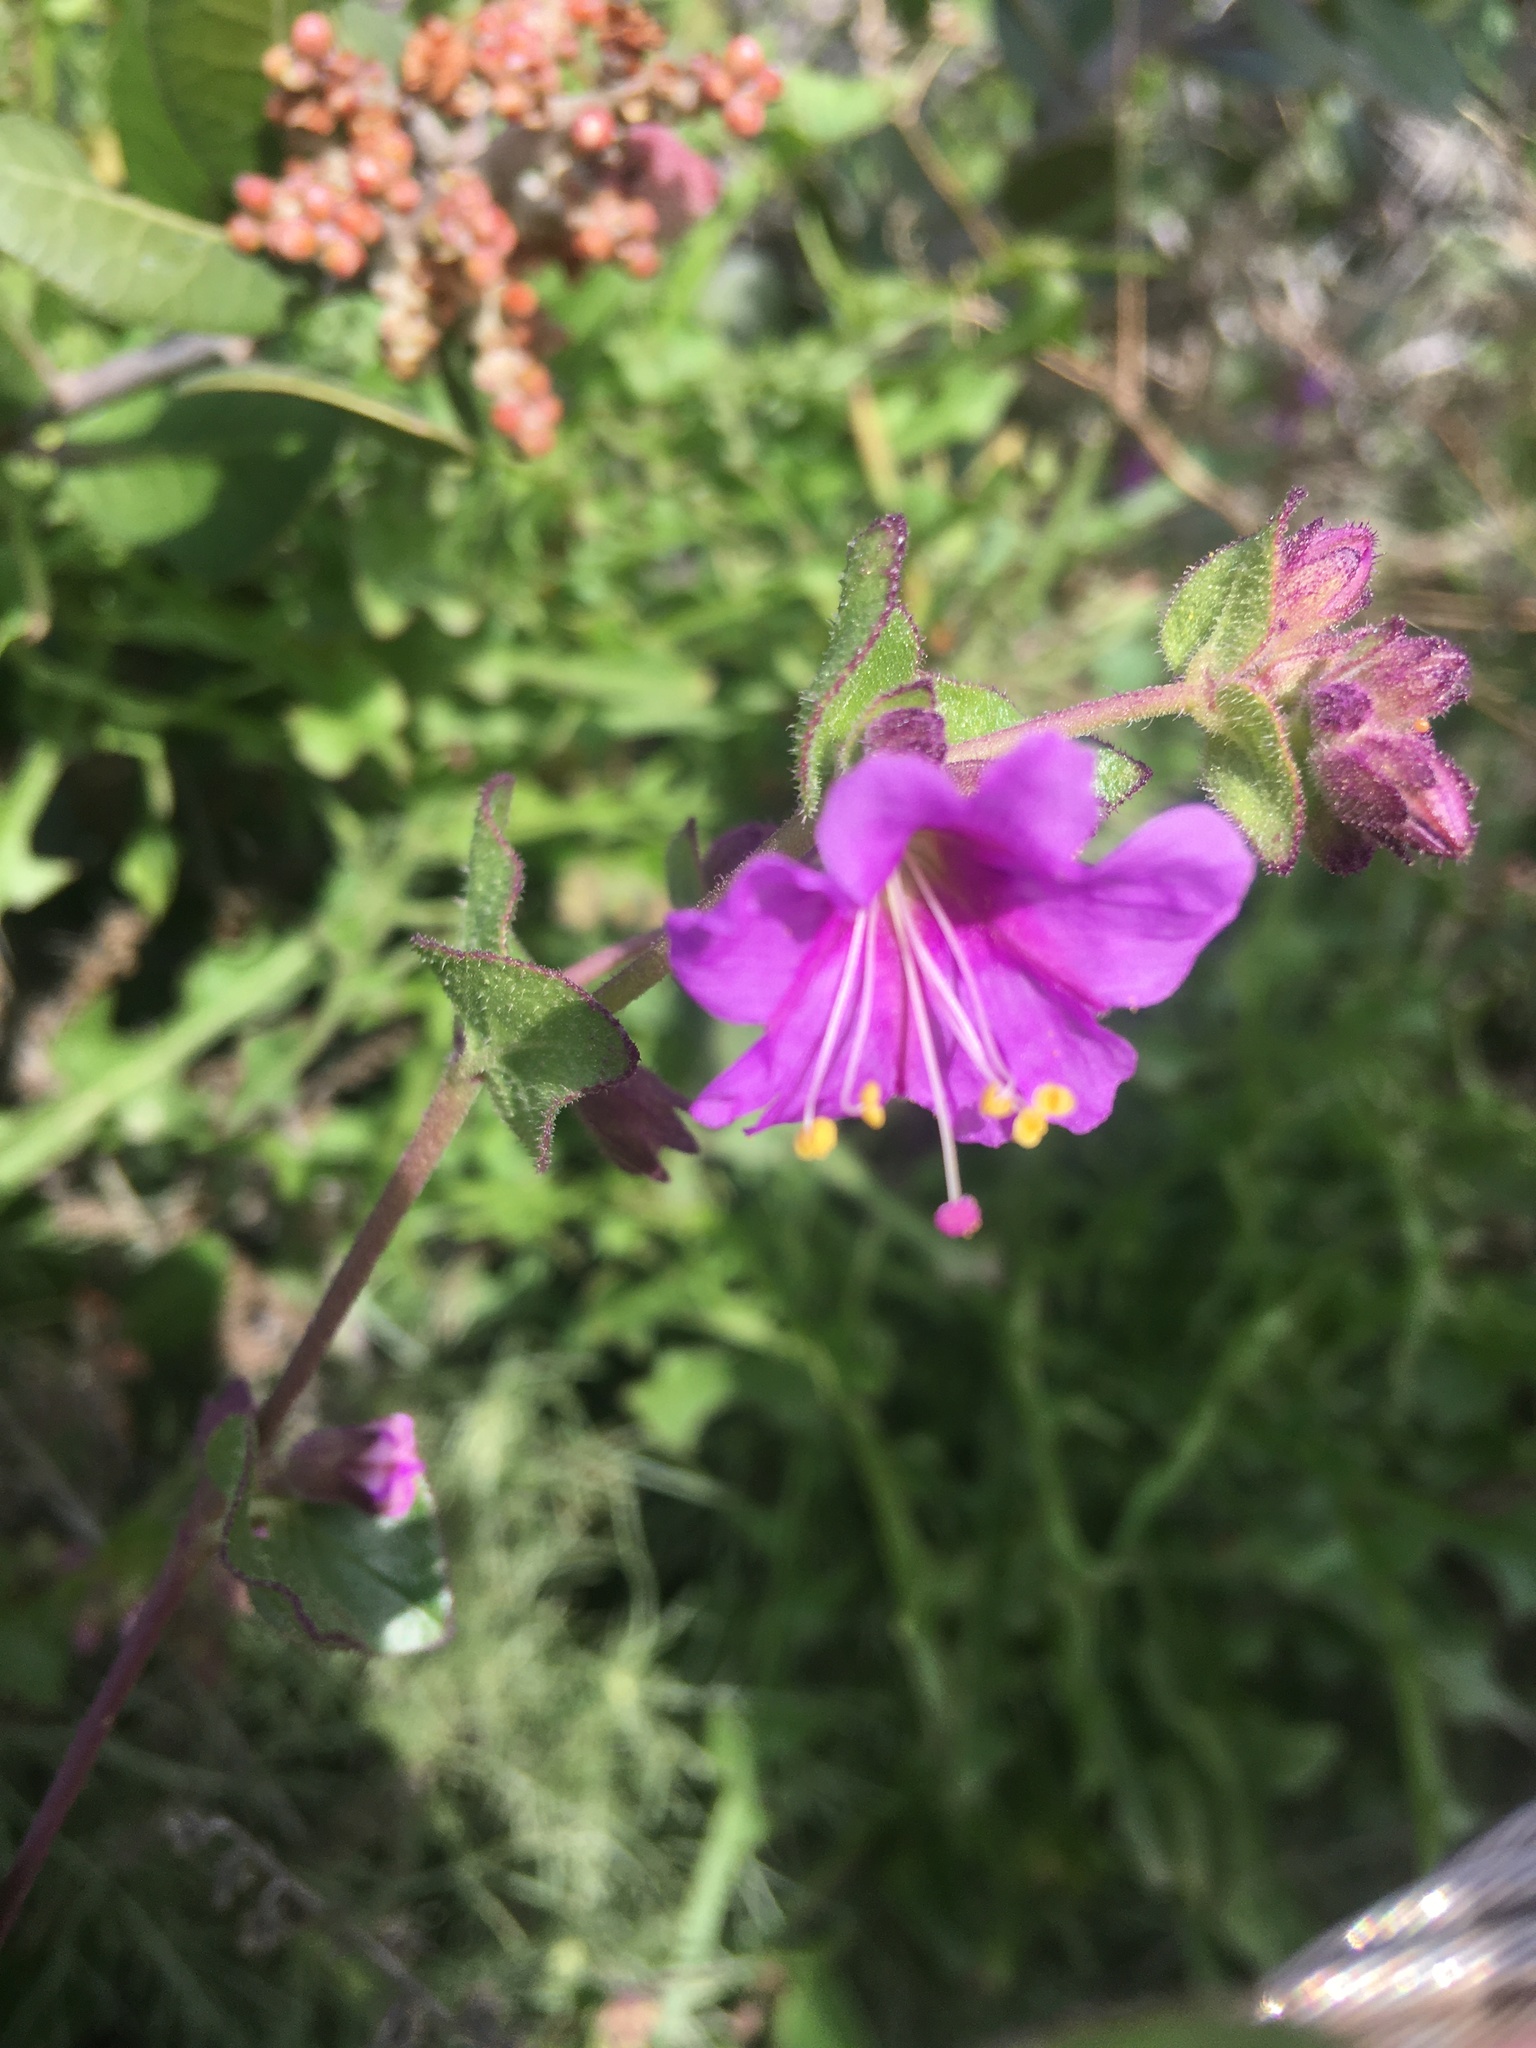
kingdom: Plantae
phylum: Tracheophyta
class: Magnoliopsida
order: Caryophyllales
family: Nyctaginaceae
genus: Mirabilis
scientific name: Mirabilis laevis
